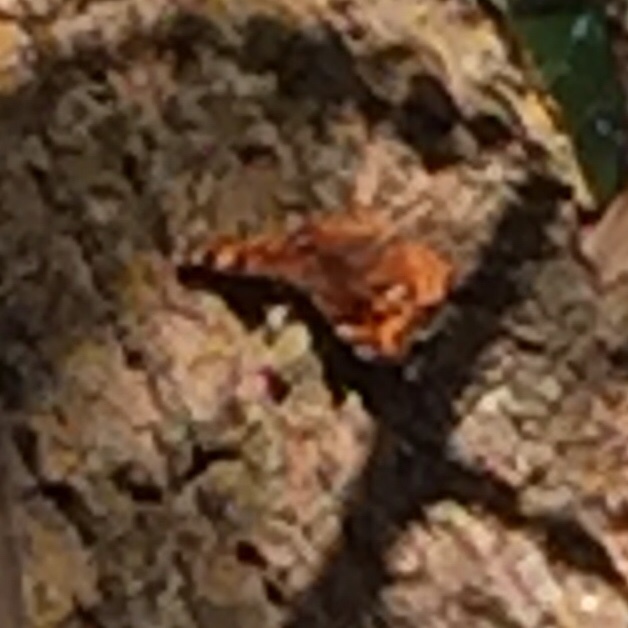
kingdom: Animalia
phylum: Arthropoda
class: Insecta
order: Lepidoptera
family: Nymphalidae
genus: Polygonia
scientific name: Polygonia vaualbum
